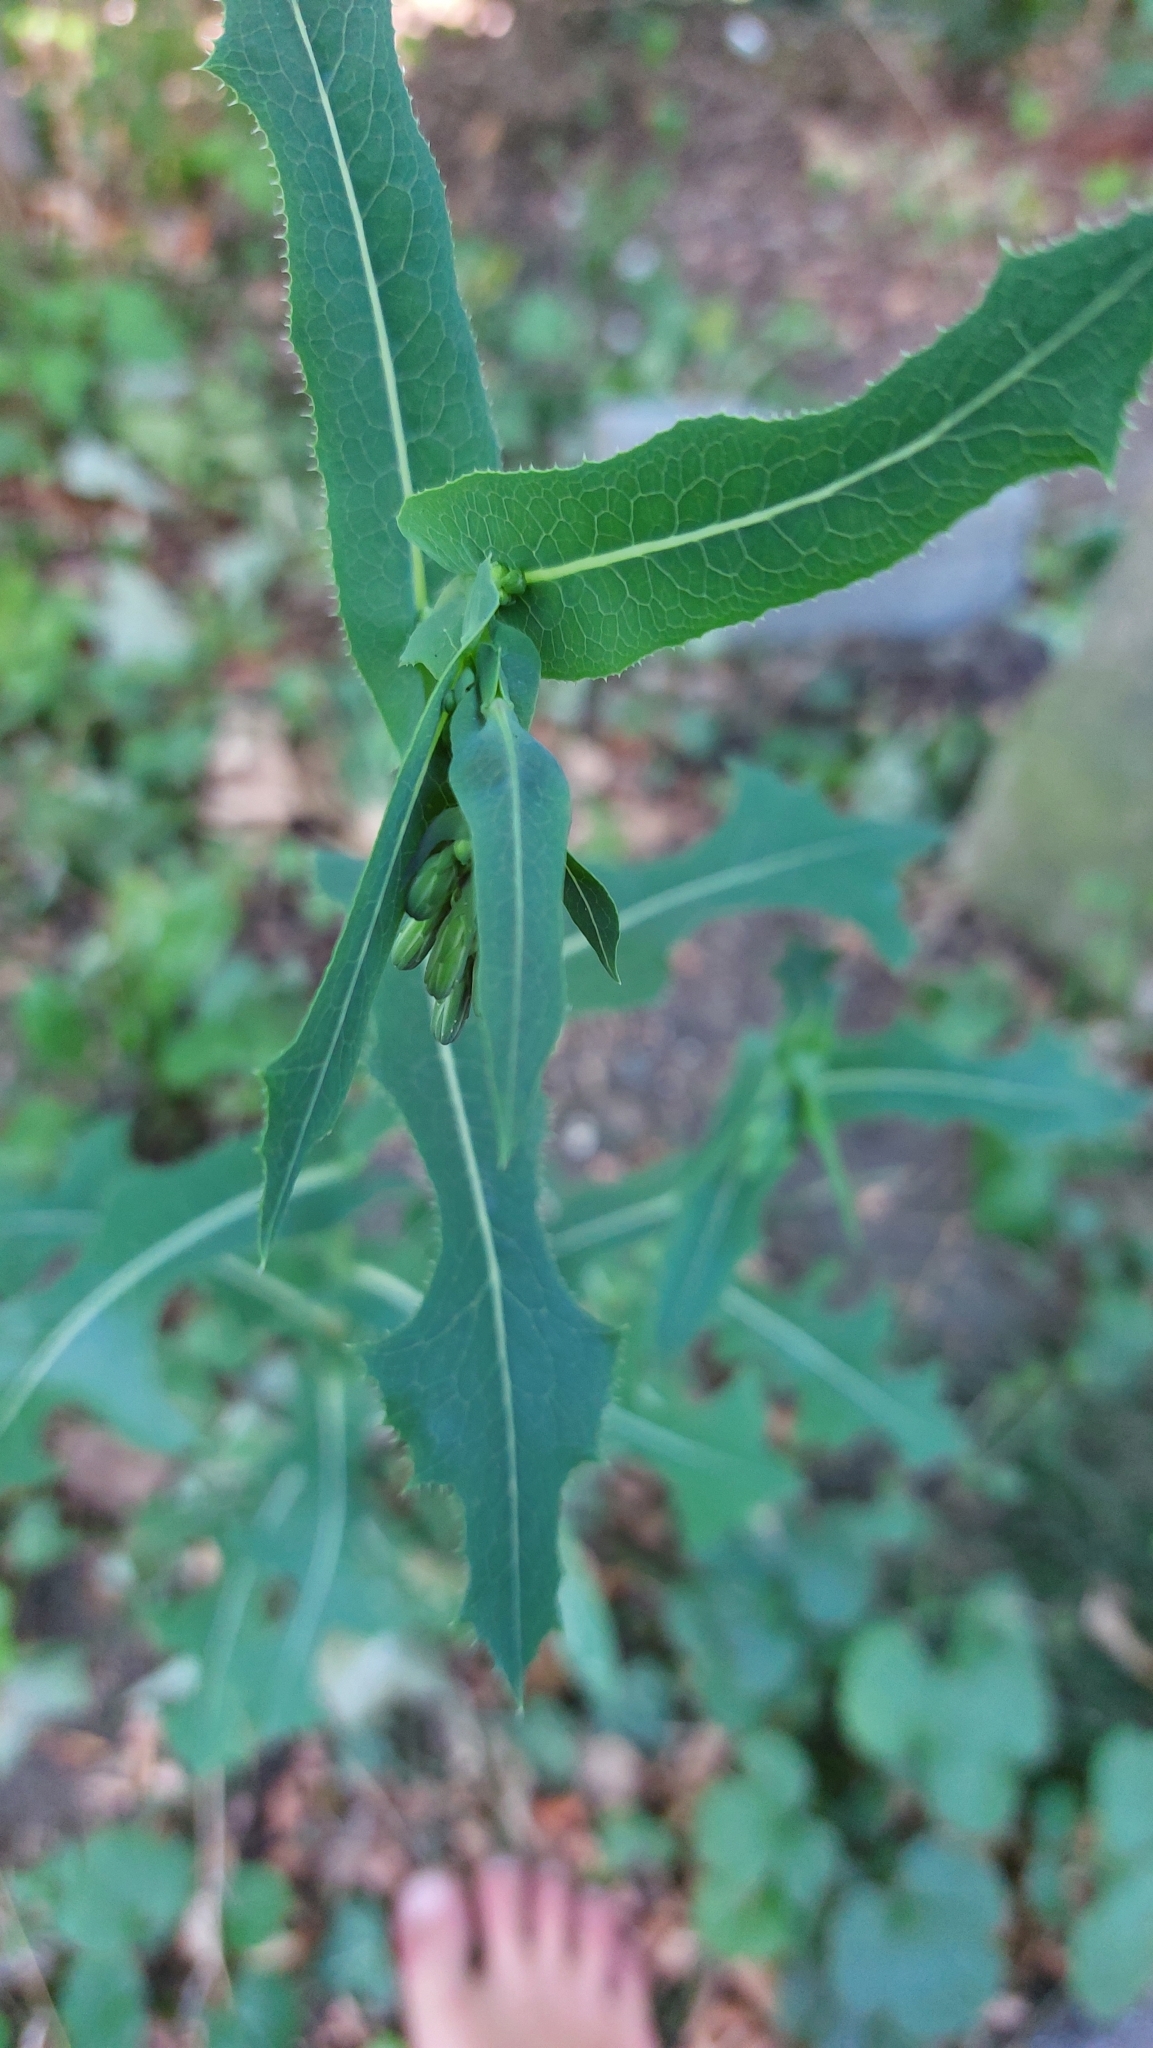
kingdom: Plantae
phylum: Tracheophyta
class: Magnoliopsida
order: Asterales
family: Asteraceae
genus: Lactuca
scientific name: Lactuca serriola
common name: Prickly lettuce
